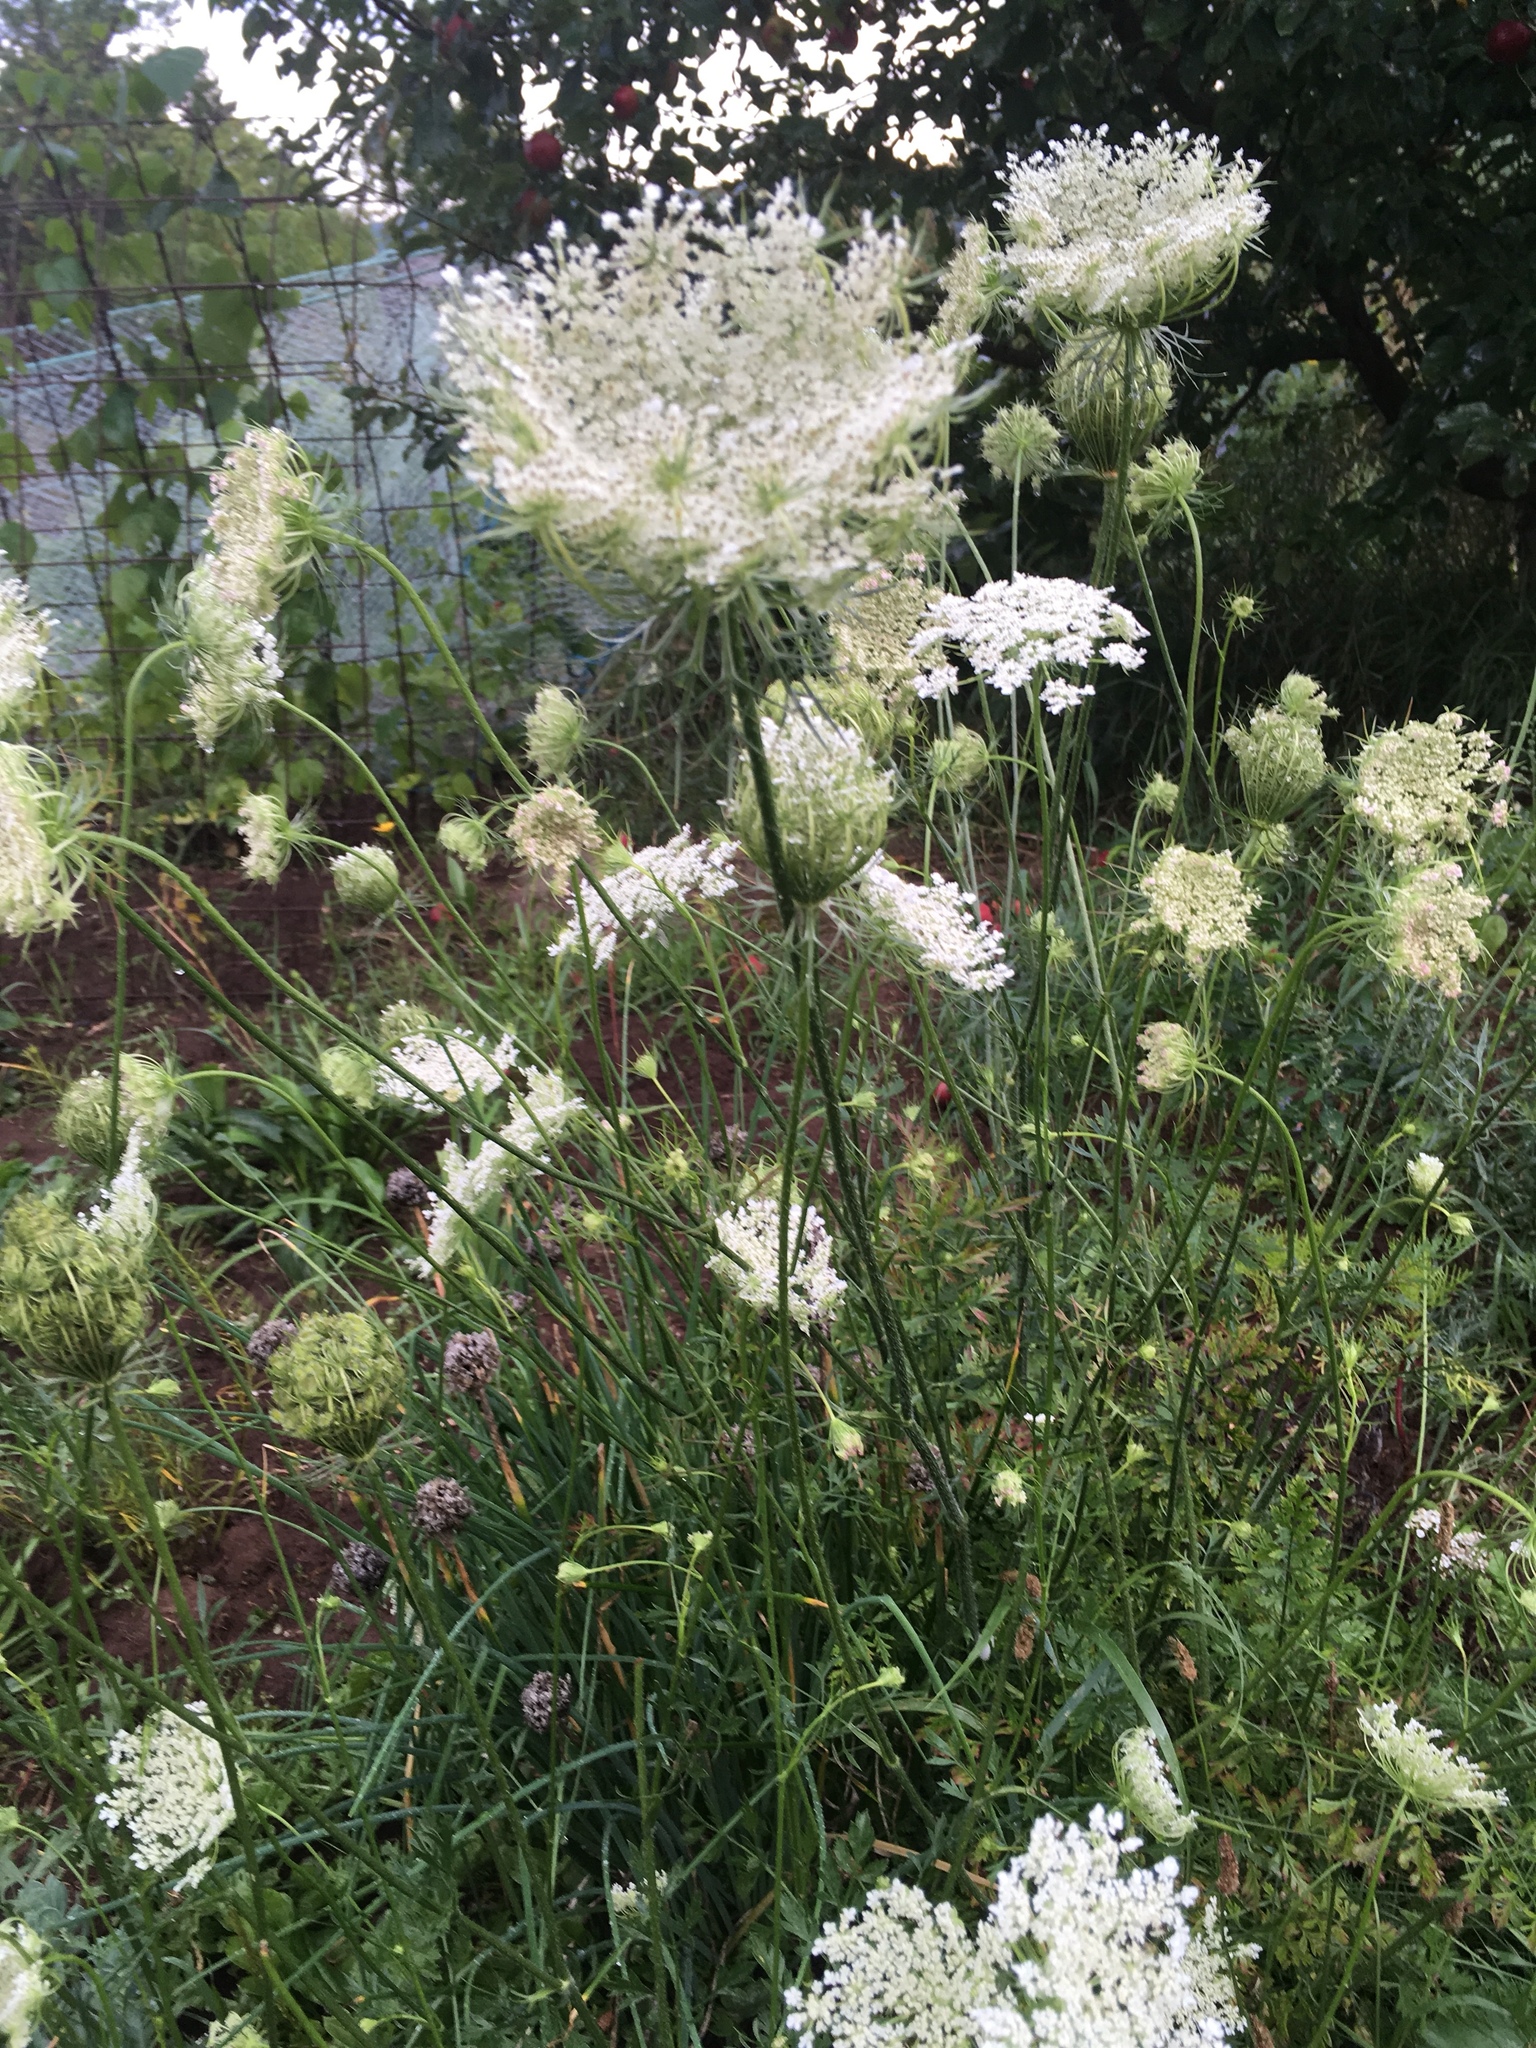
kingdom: Plantae
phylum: Tracheophyta
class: Magnoliopsida
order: Apiales
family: Apiaceae
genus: Daucus
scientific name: Daucus carota
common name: Wild carrot
